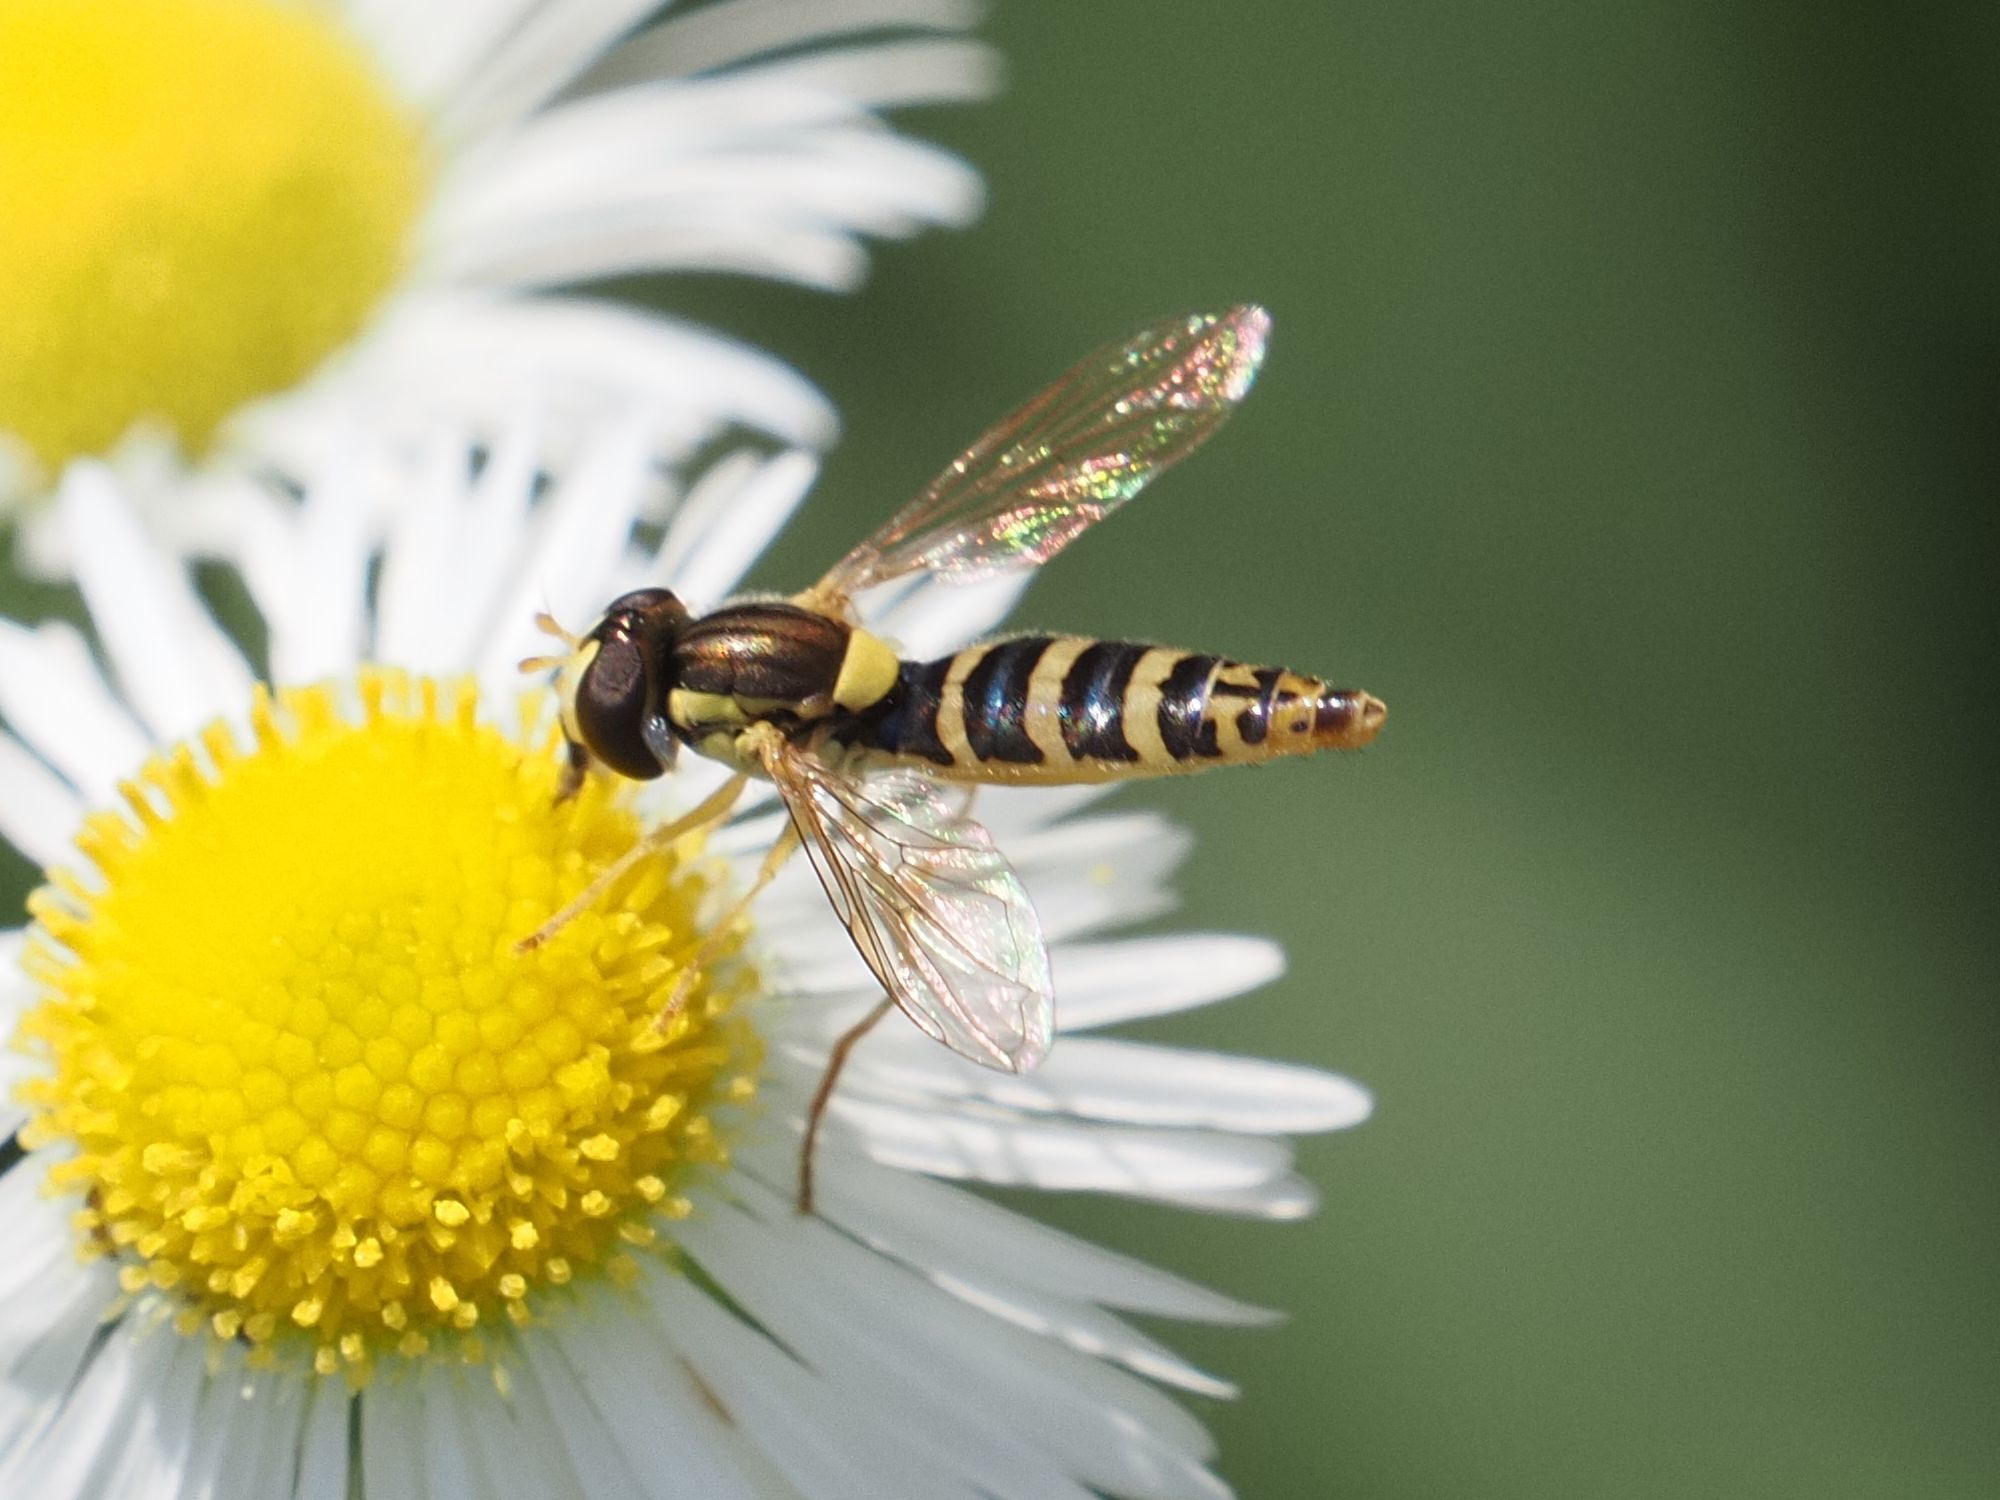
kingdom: Animalia
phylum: Arthropoda
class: Insecta
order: Diptera
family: Syrphidae
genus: Sphaerophoria
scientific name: Sphaerophoria
